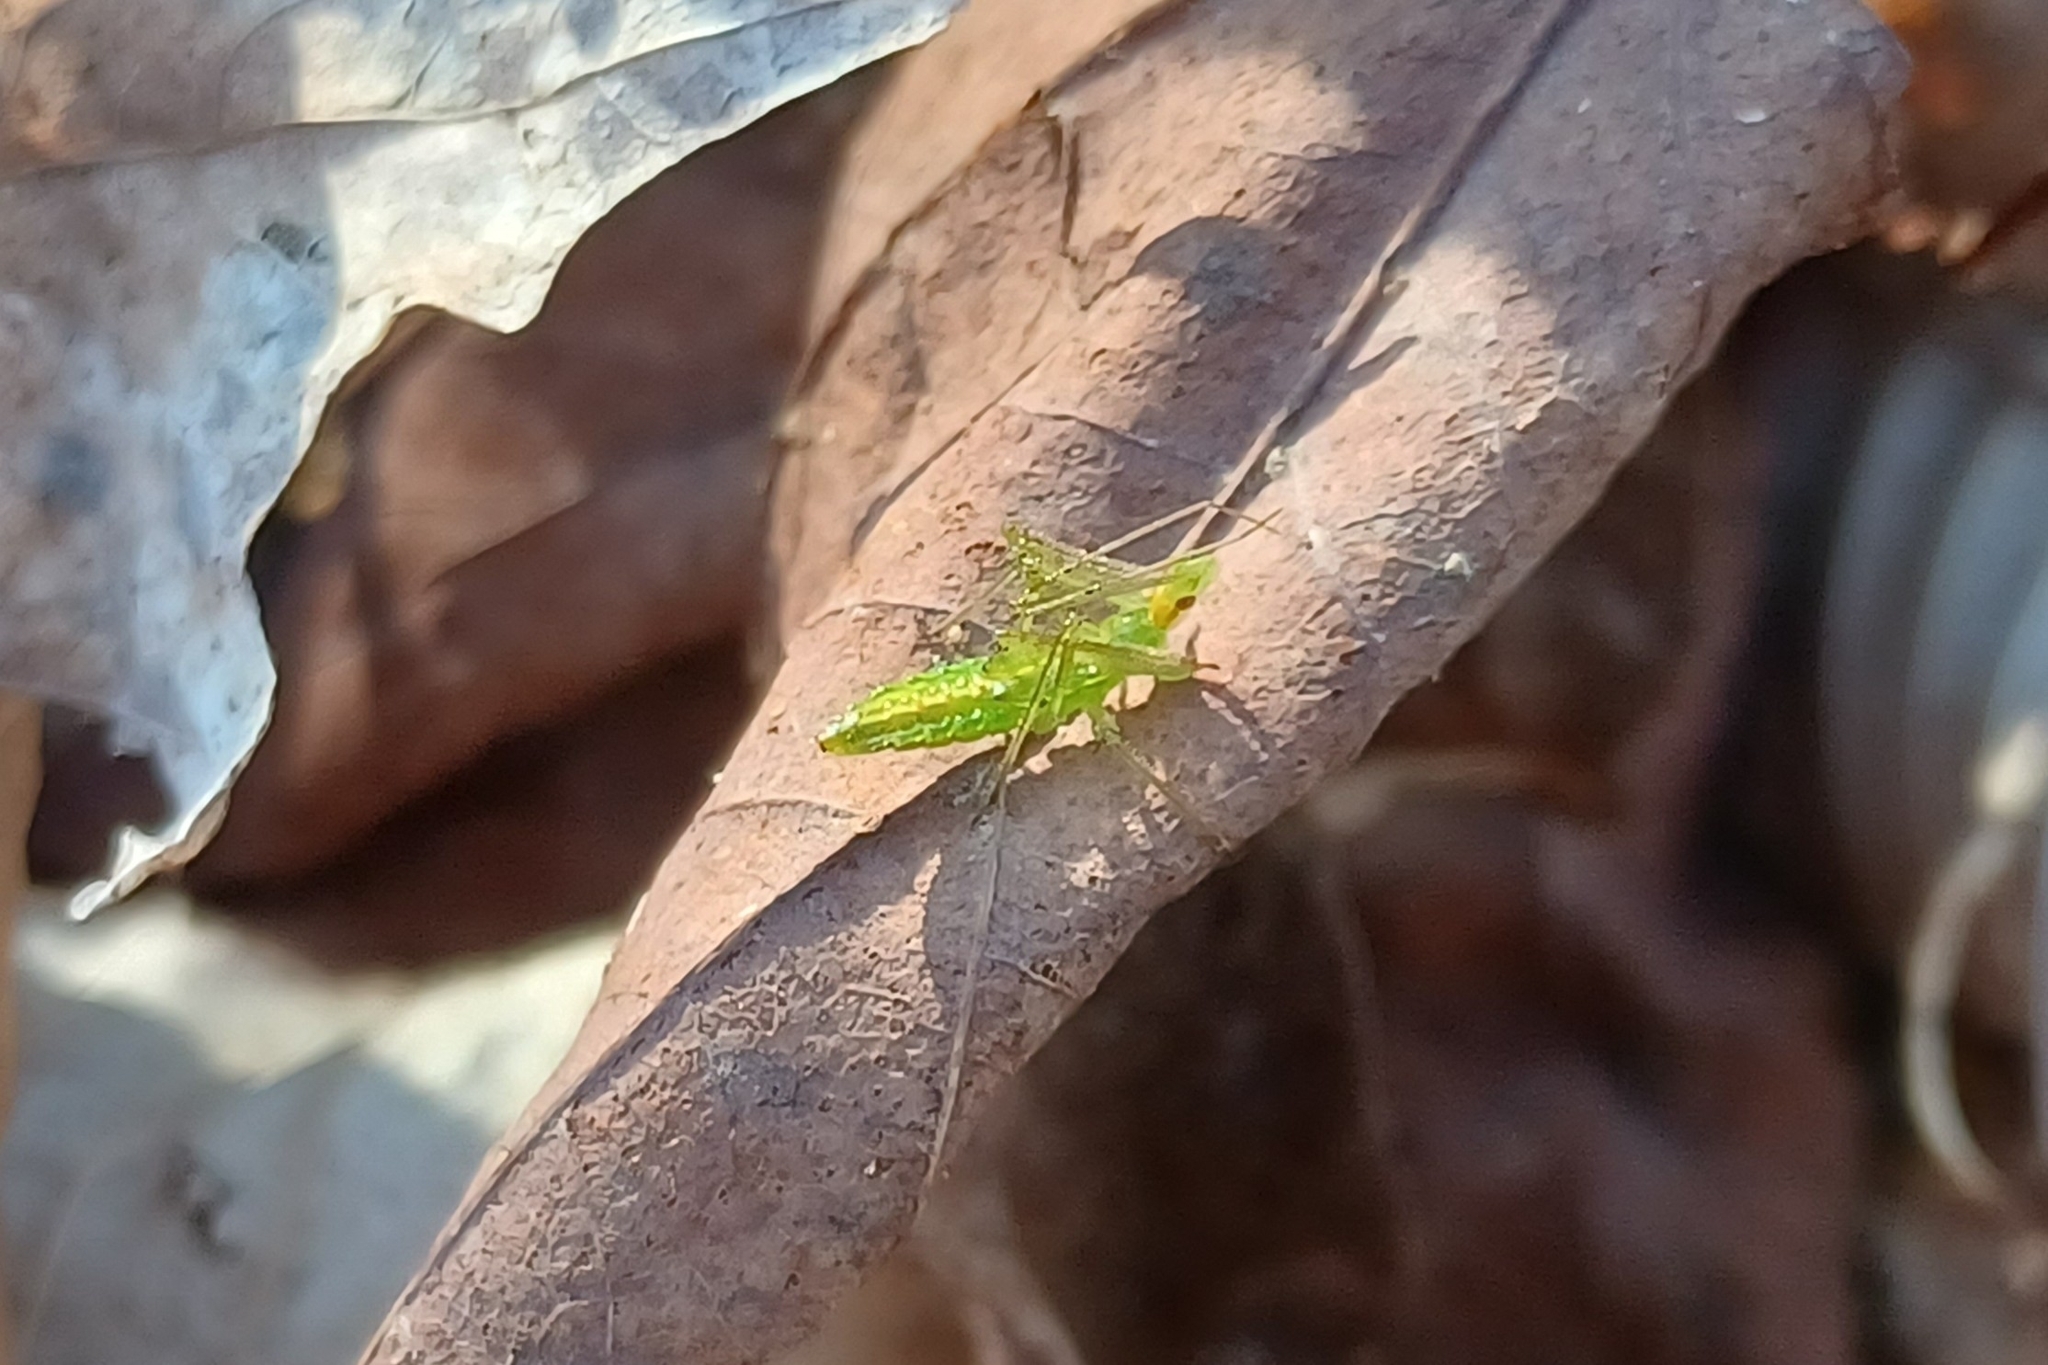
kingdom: Animalia
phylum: Arthropoda
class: Insecta
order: Hemiptera
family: Reduviidae
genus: Zelus
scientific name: Zelus luridus
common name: Pale green assassin bug
